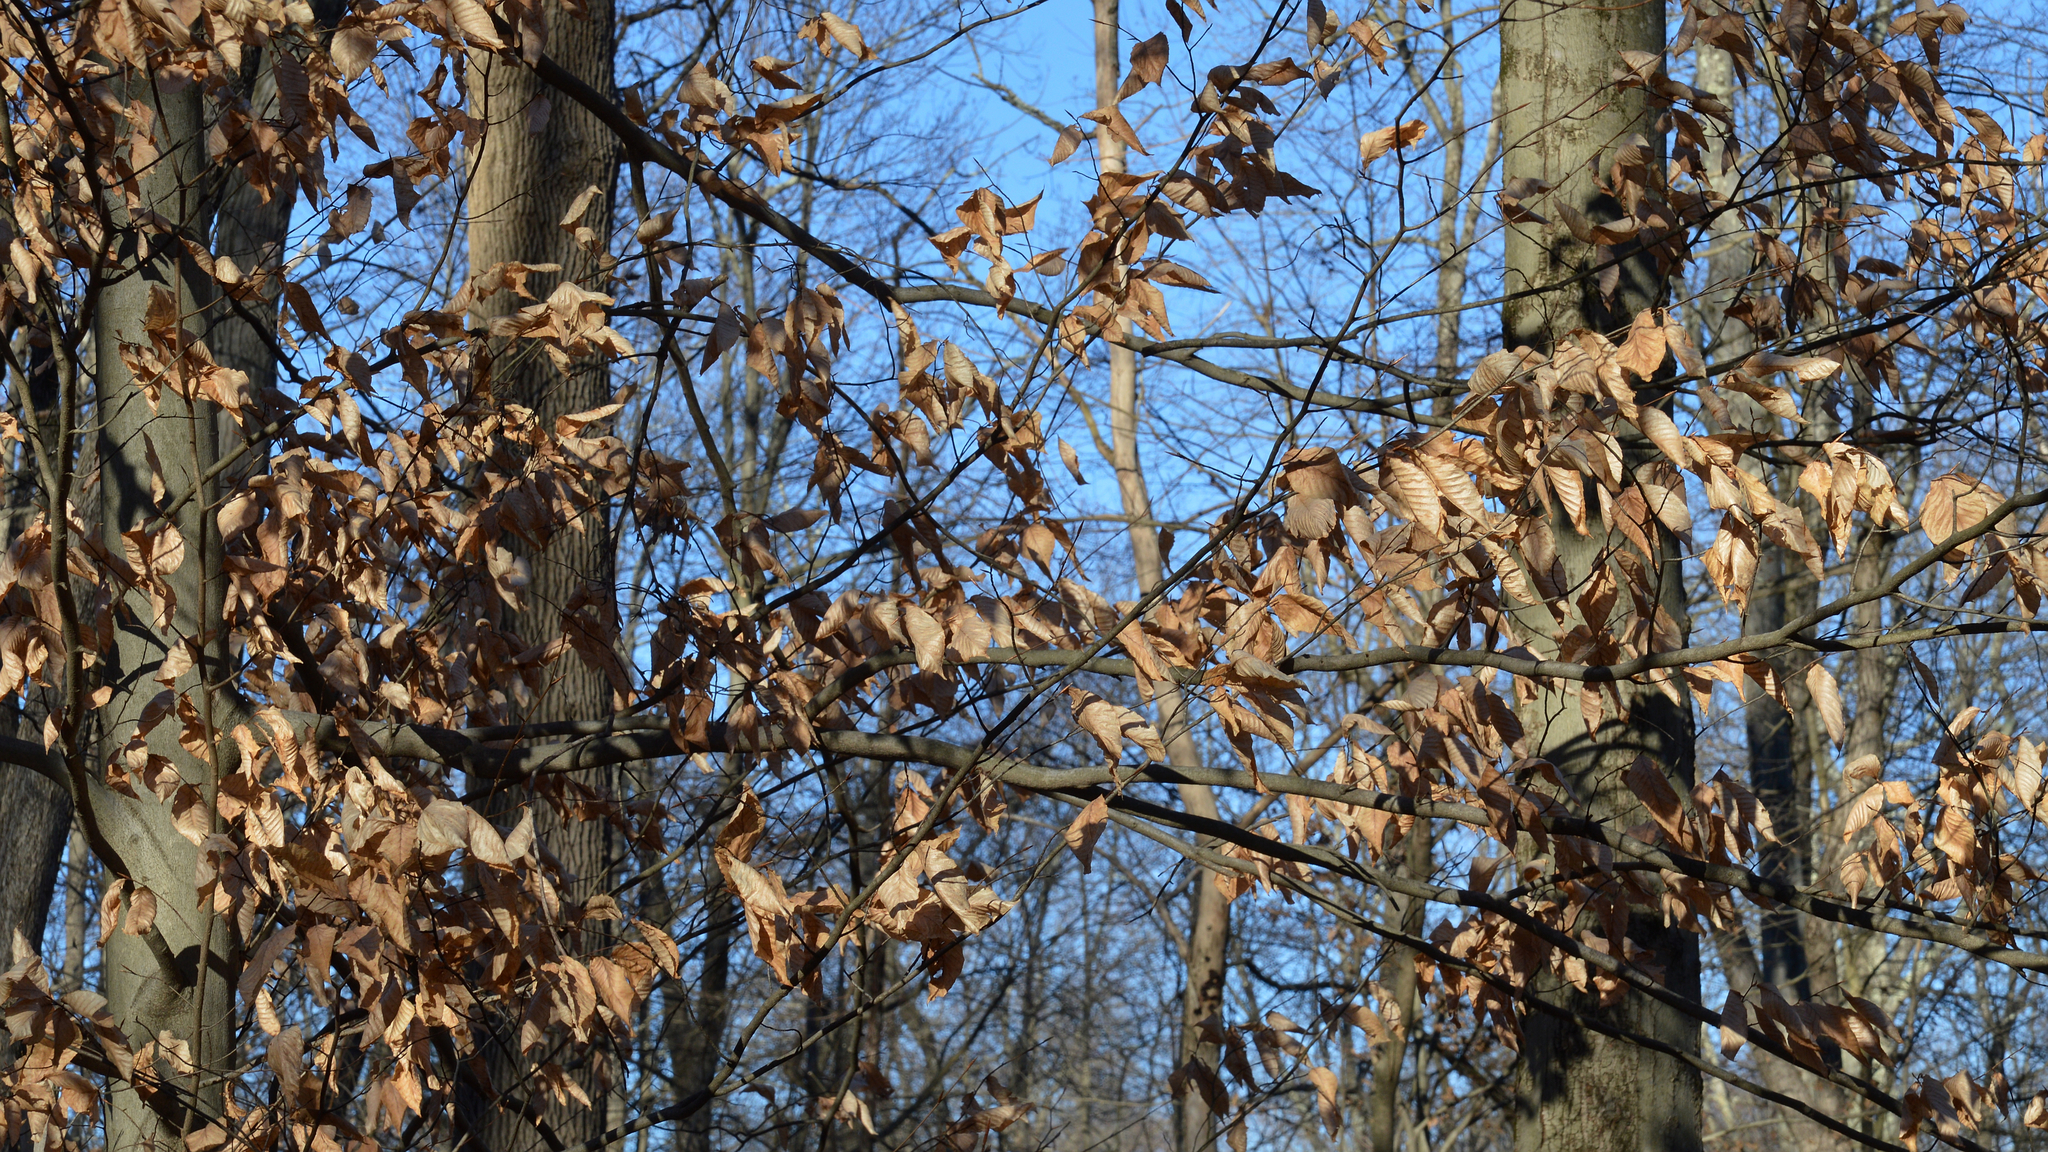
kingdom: Plantae
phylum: Tracheophyta
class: Magnoliopsida
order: Fagales
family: Fagaceae
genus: Fagus
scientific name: Fagus grandifolia
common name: American beech
